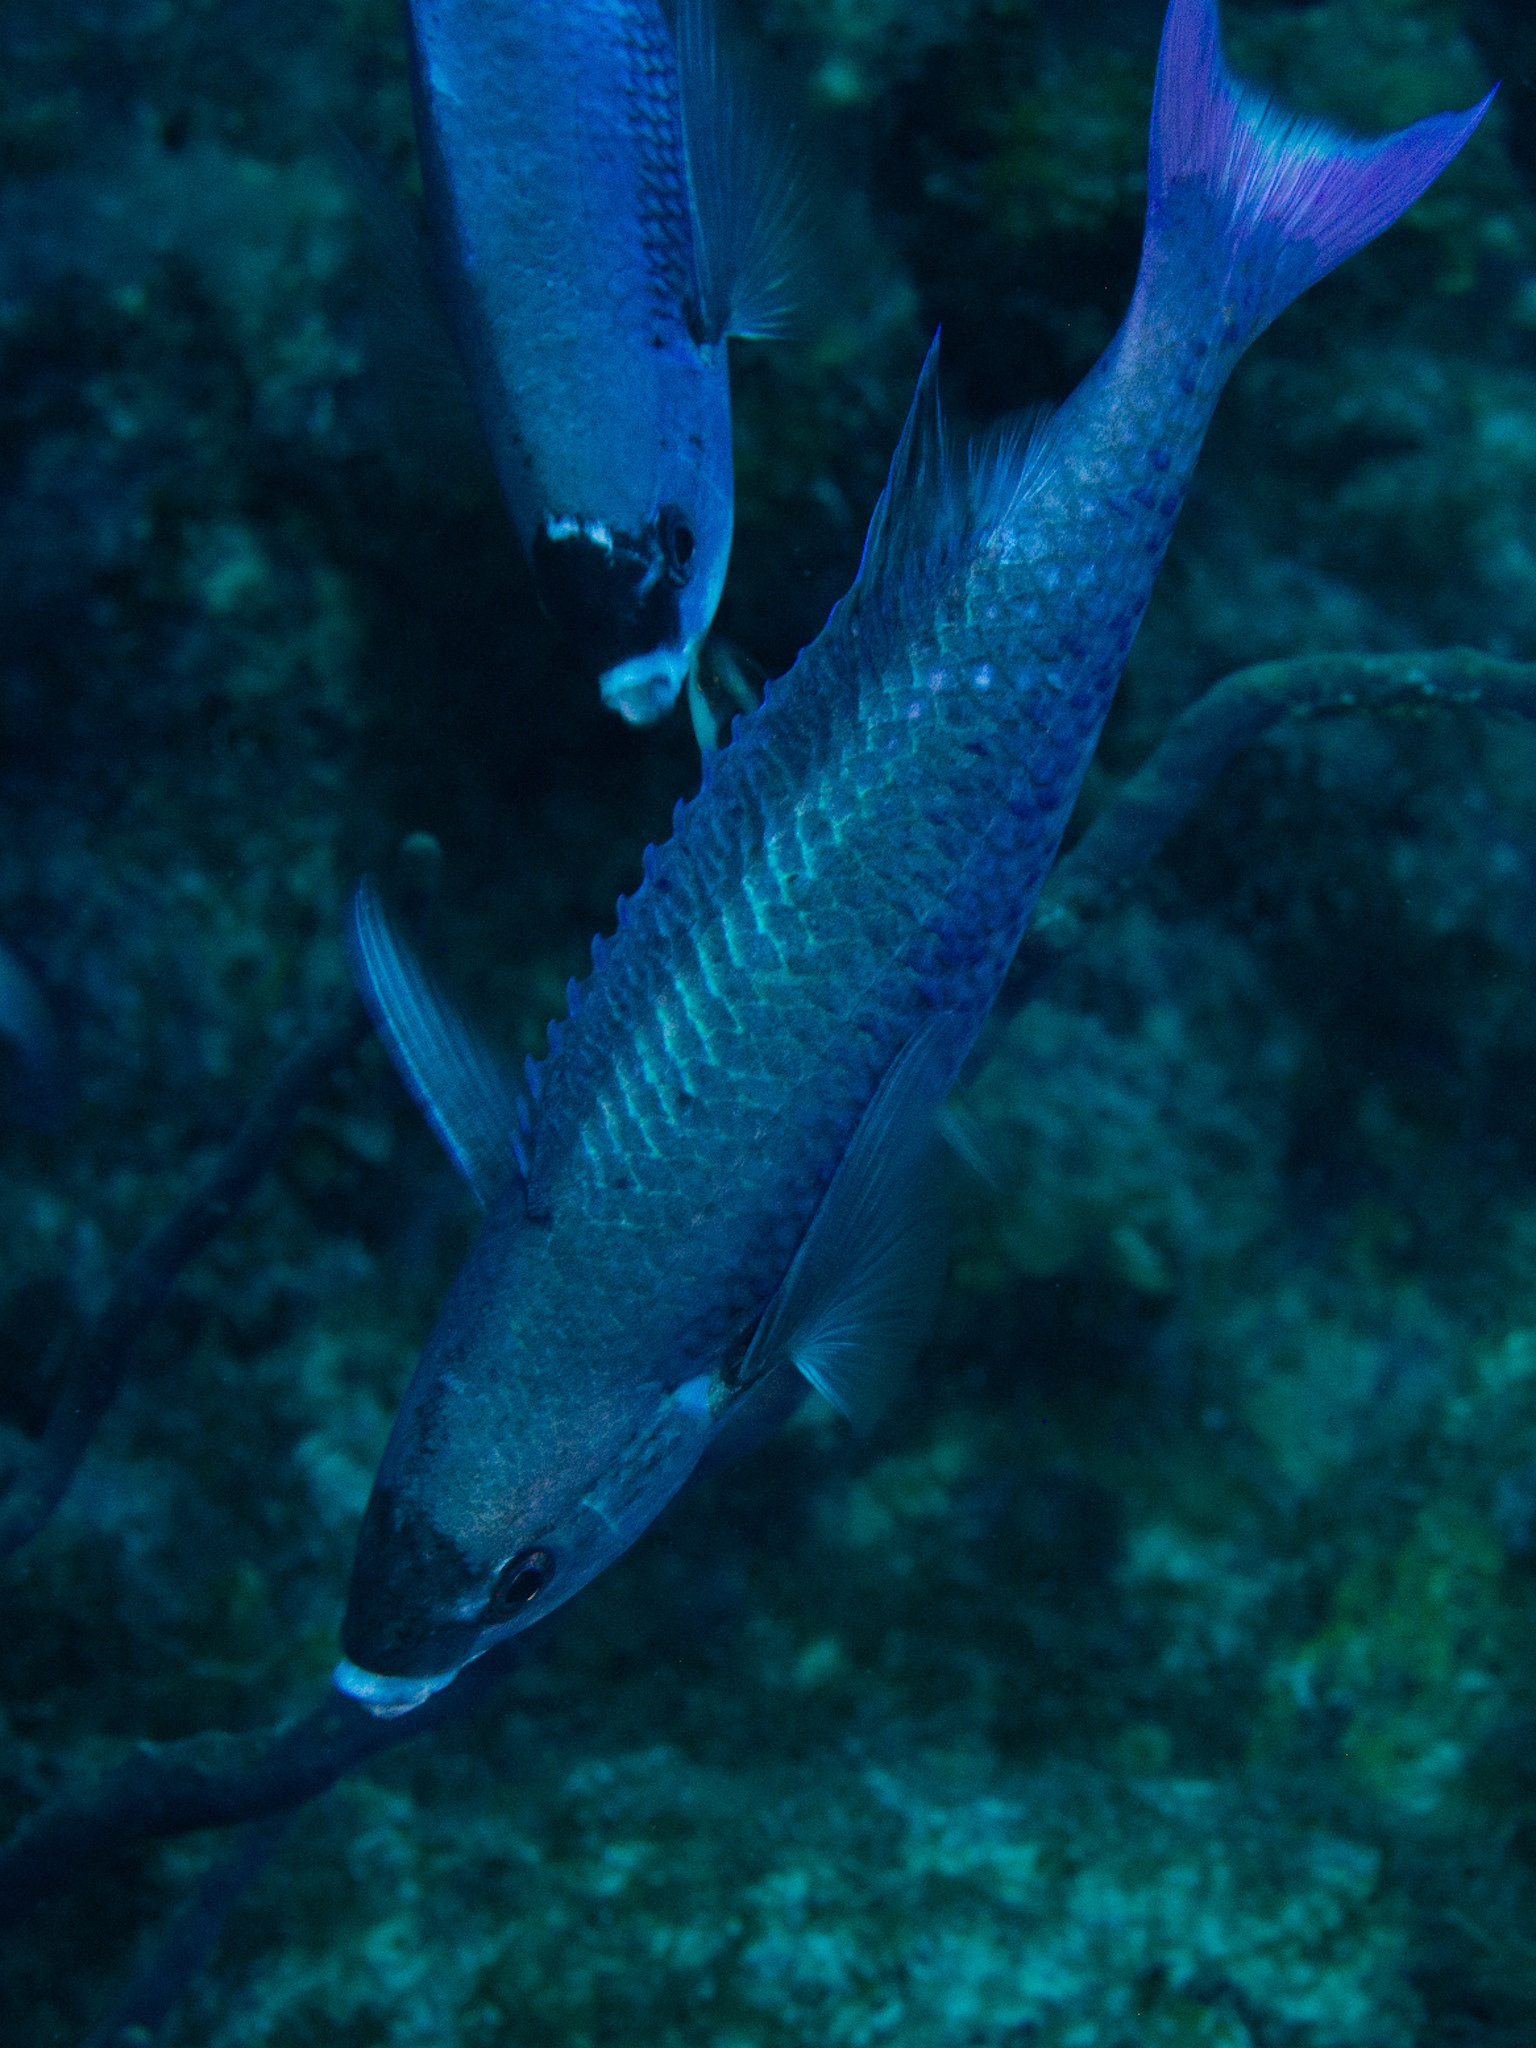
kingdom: Animalia
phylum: Chordata
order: Perciformes
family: Labridae
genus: Bodianus
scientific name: Bodianus
